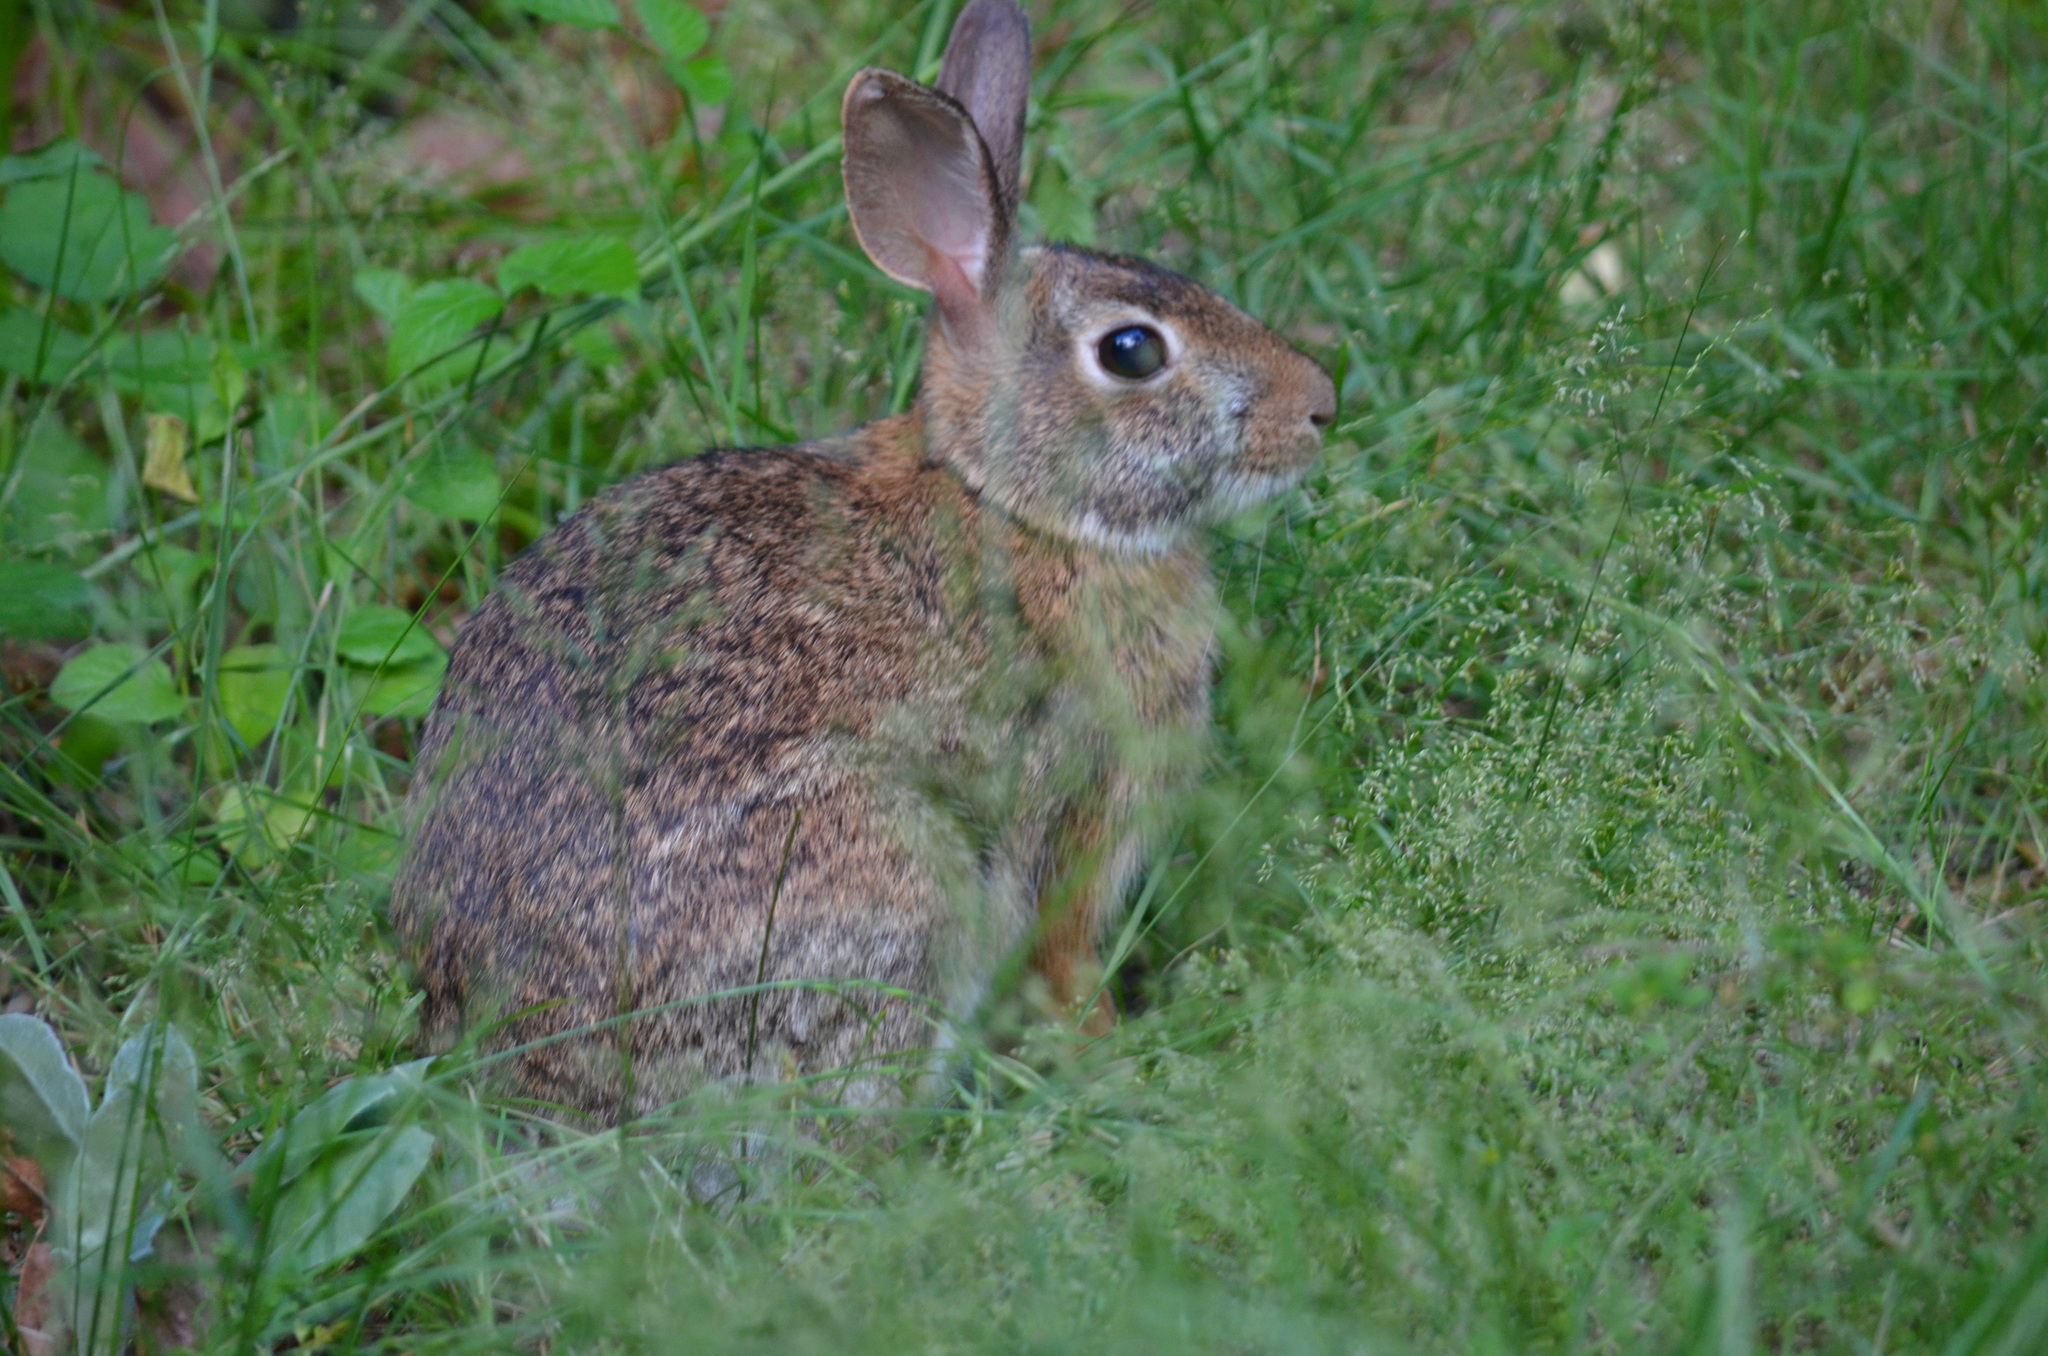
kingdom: Animalia
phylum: Chordata
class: Mammalia
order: Lagomorpha
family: Leporidae
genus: Sylvilagus
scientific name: Sylvilagus floridanus
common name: Eastern cottontail
